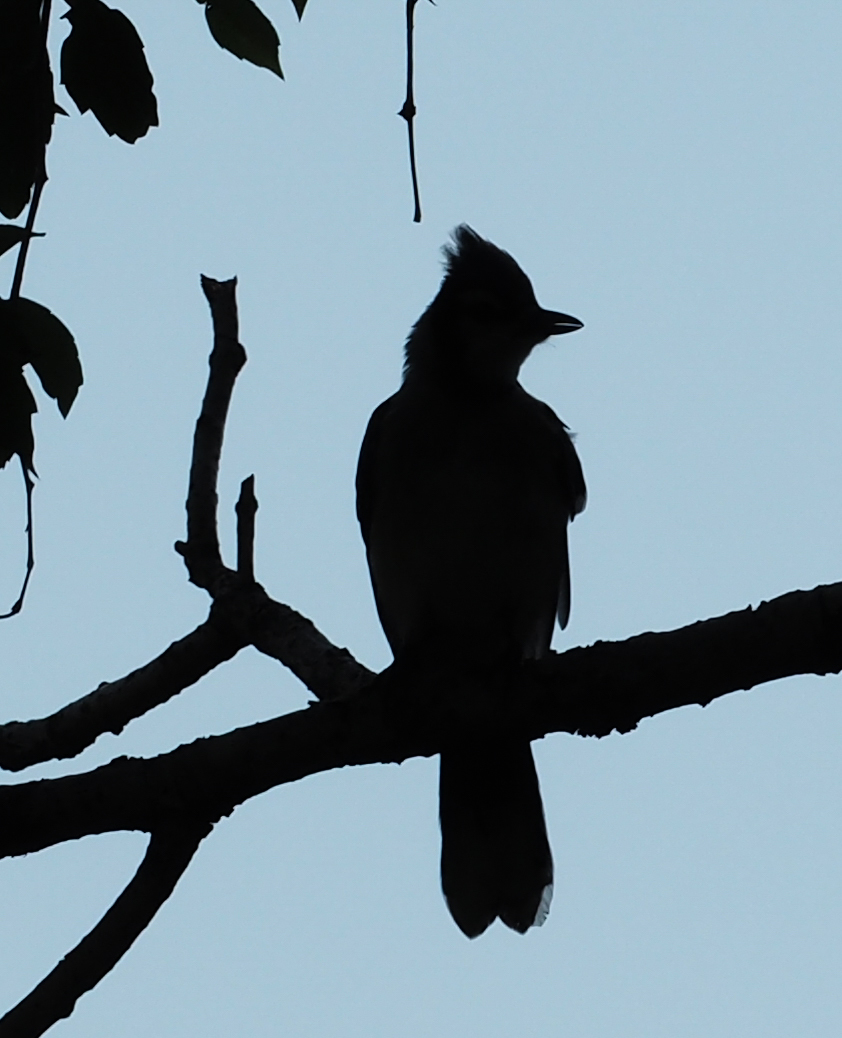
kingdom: Animalia
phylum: Chordata
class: Aves
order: Passeriformes
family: Corvidae
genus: Cyanocitta
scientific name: Cyanocitta cristata
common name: Blue jay
